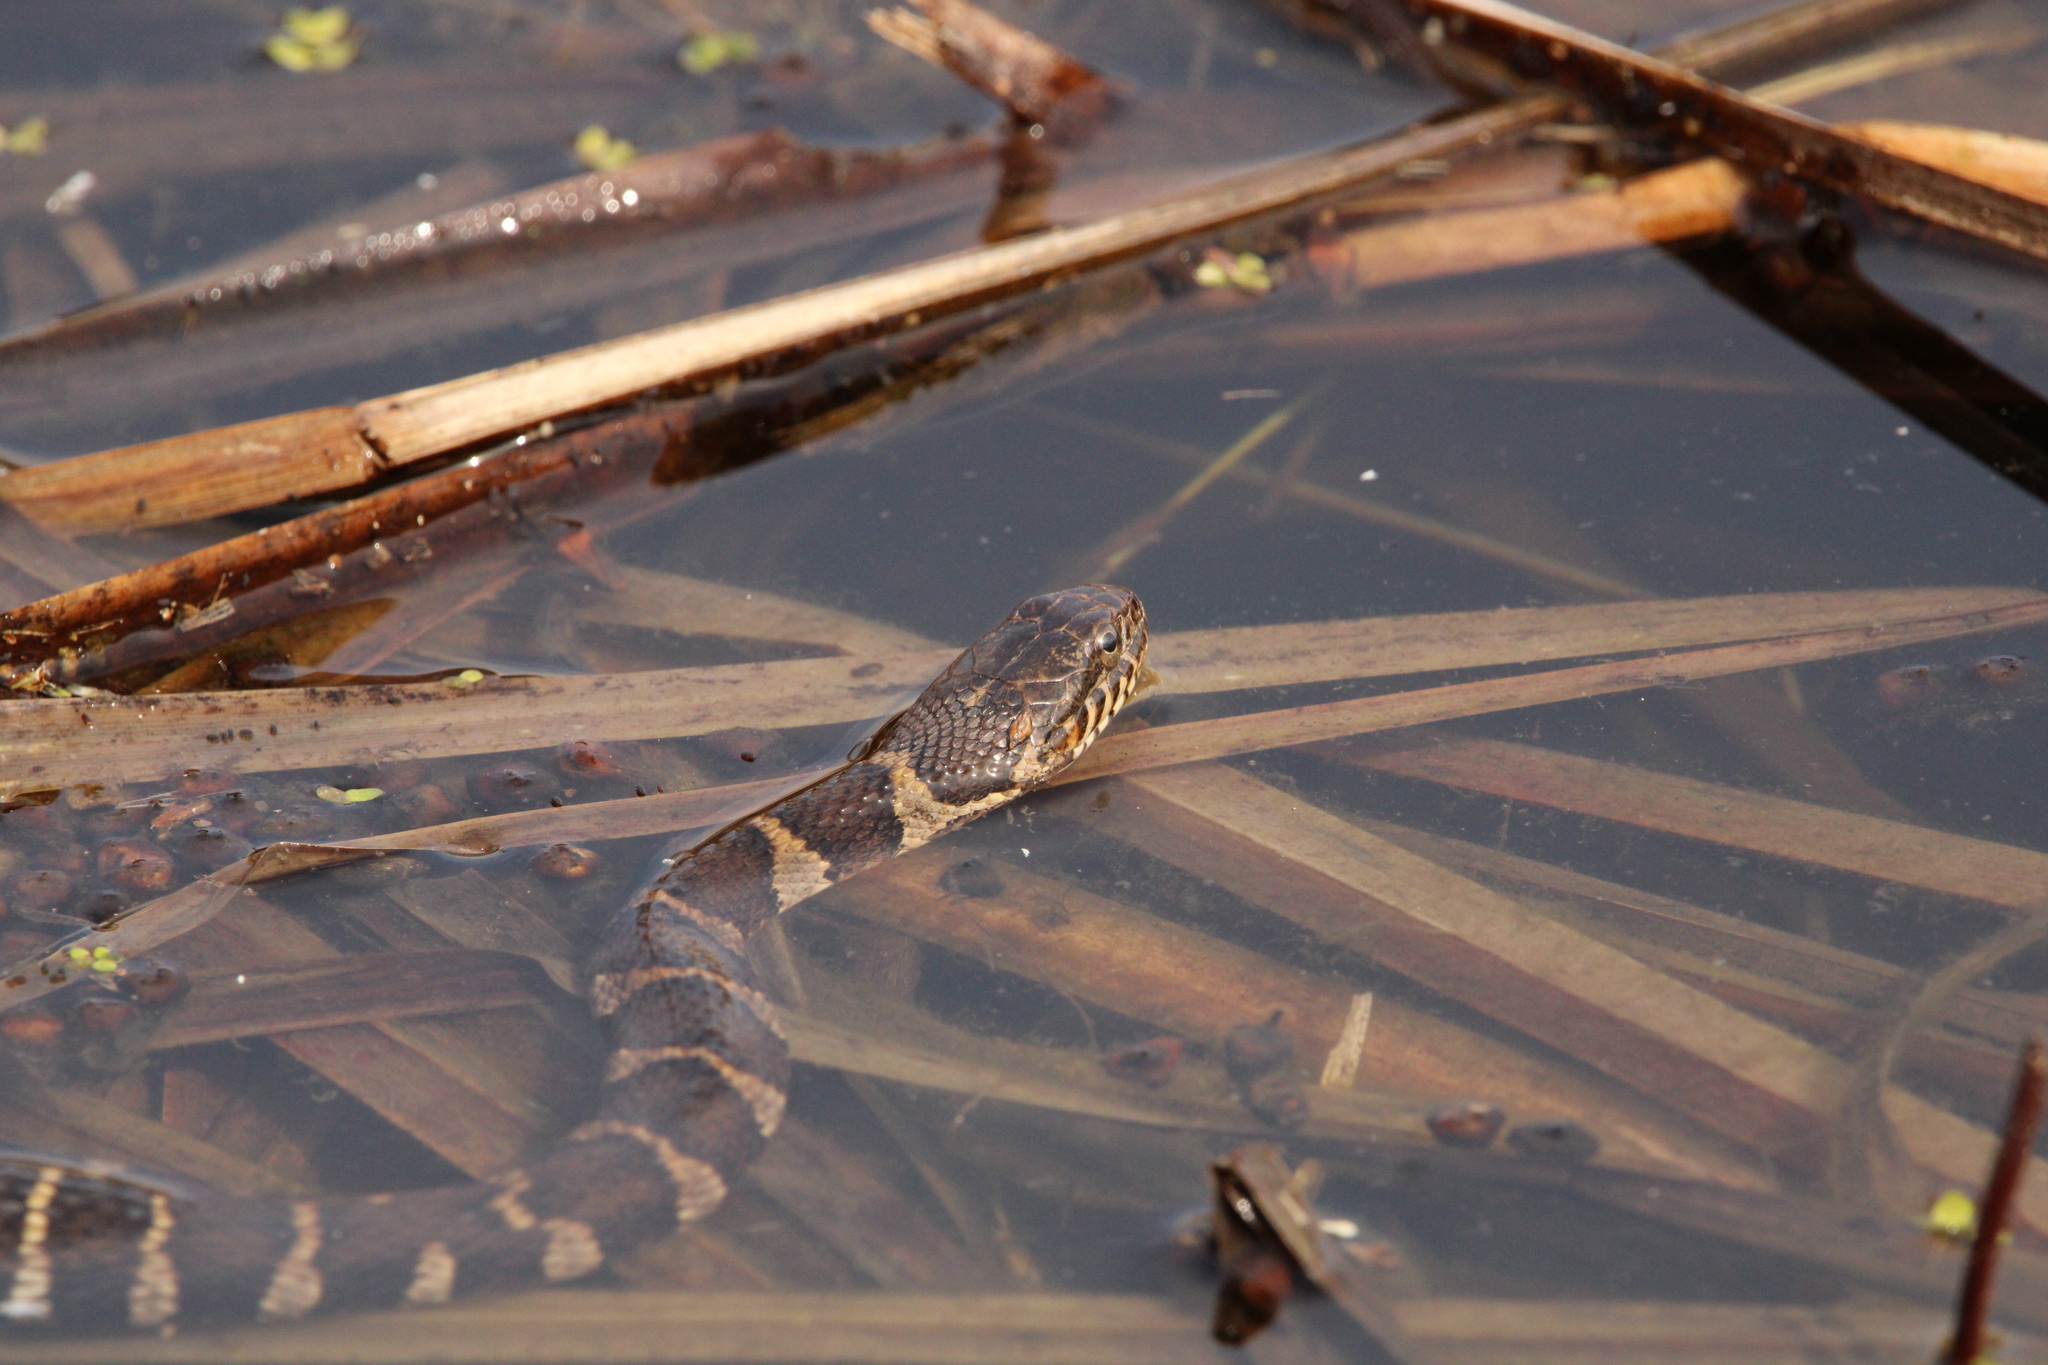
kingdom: Animalia
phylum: Chordata
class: Squamata
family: Colubridae
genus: Nerodia
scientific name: Nerodia sipedon
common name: Northern water snake
